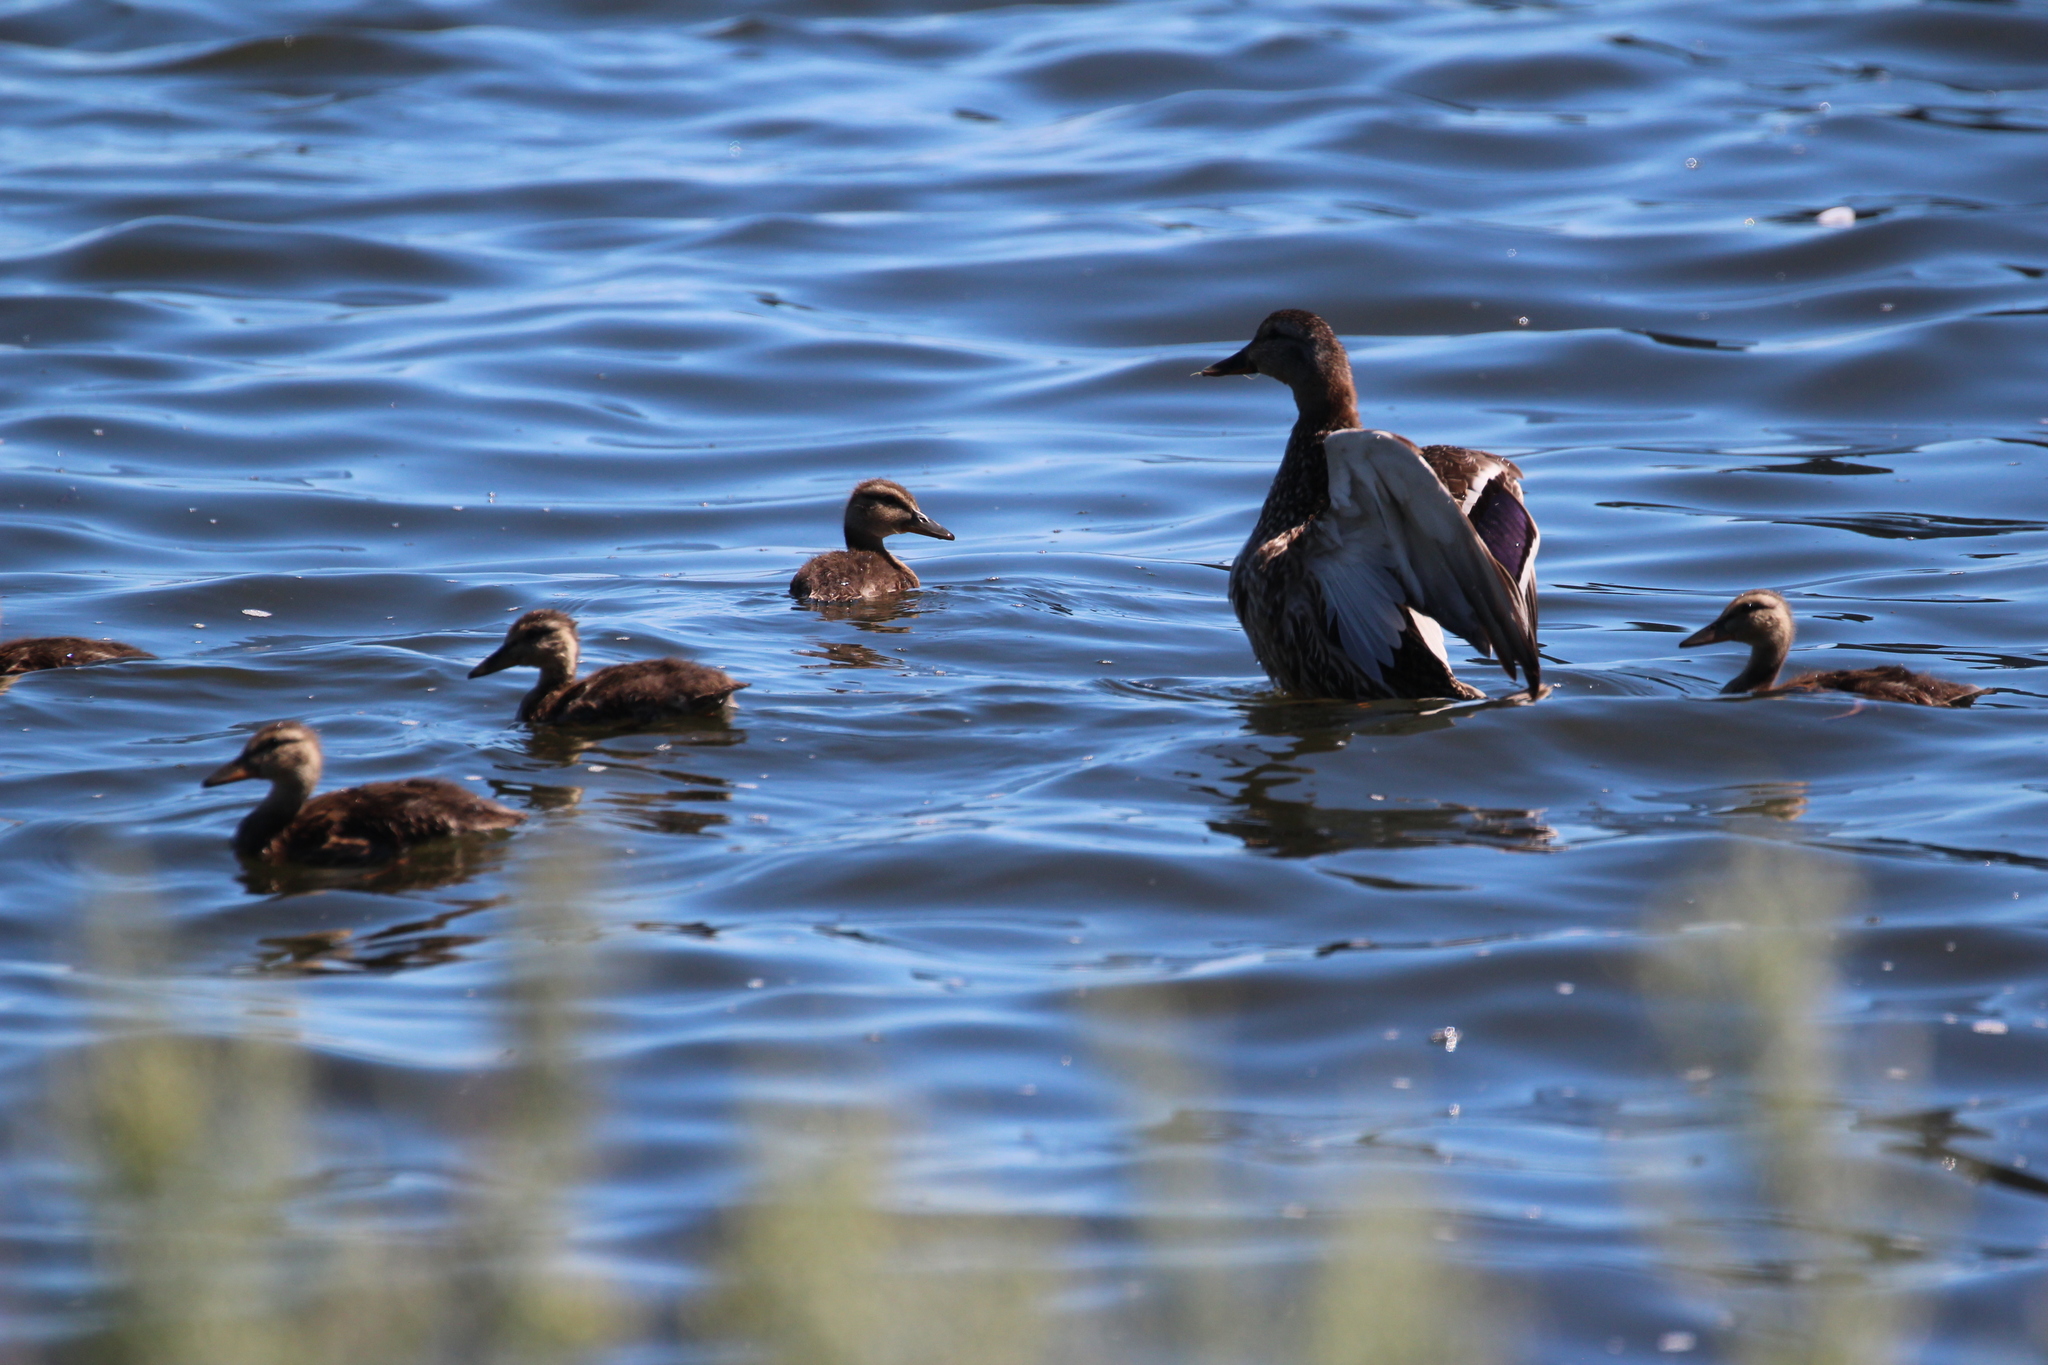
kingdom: Animalia
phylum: Chordata
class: Aves
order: Anseriformes
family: Anatidae
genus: Anas
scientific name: Anas platyrhynchos
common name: Mallard
